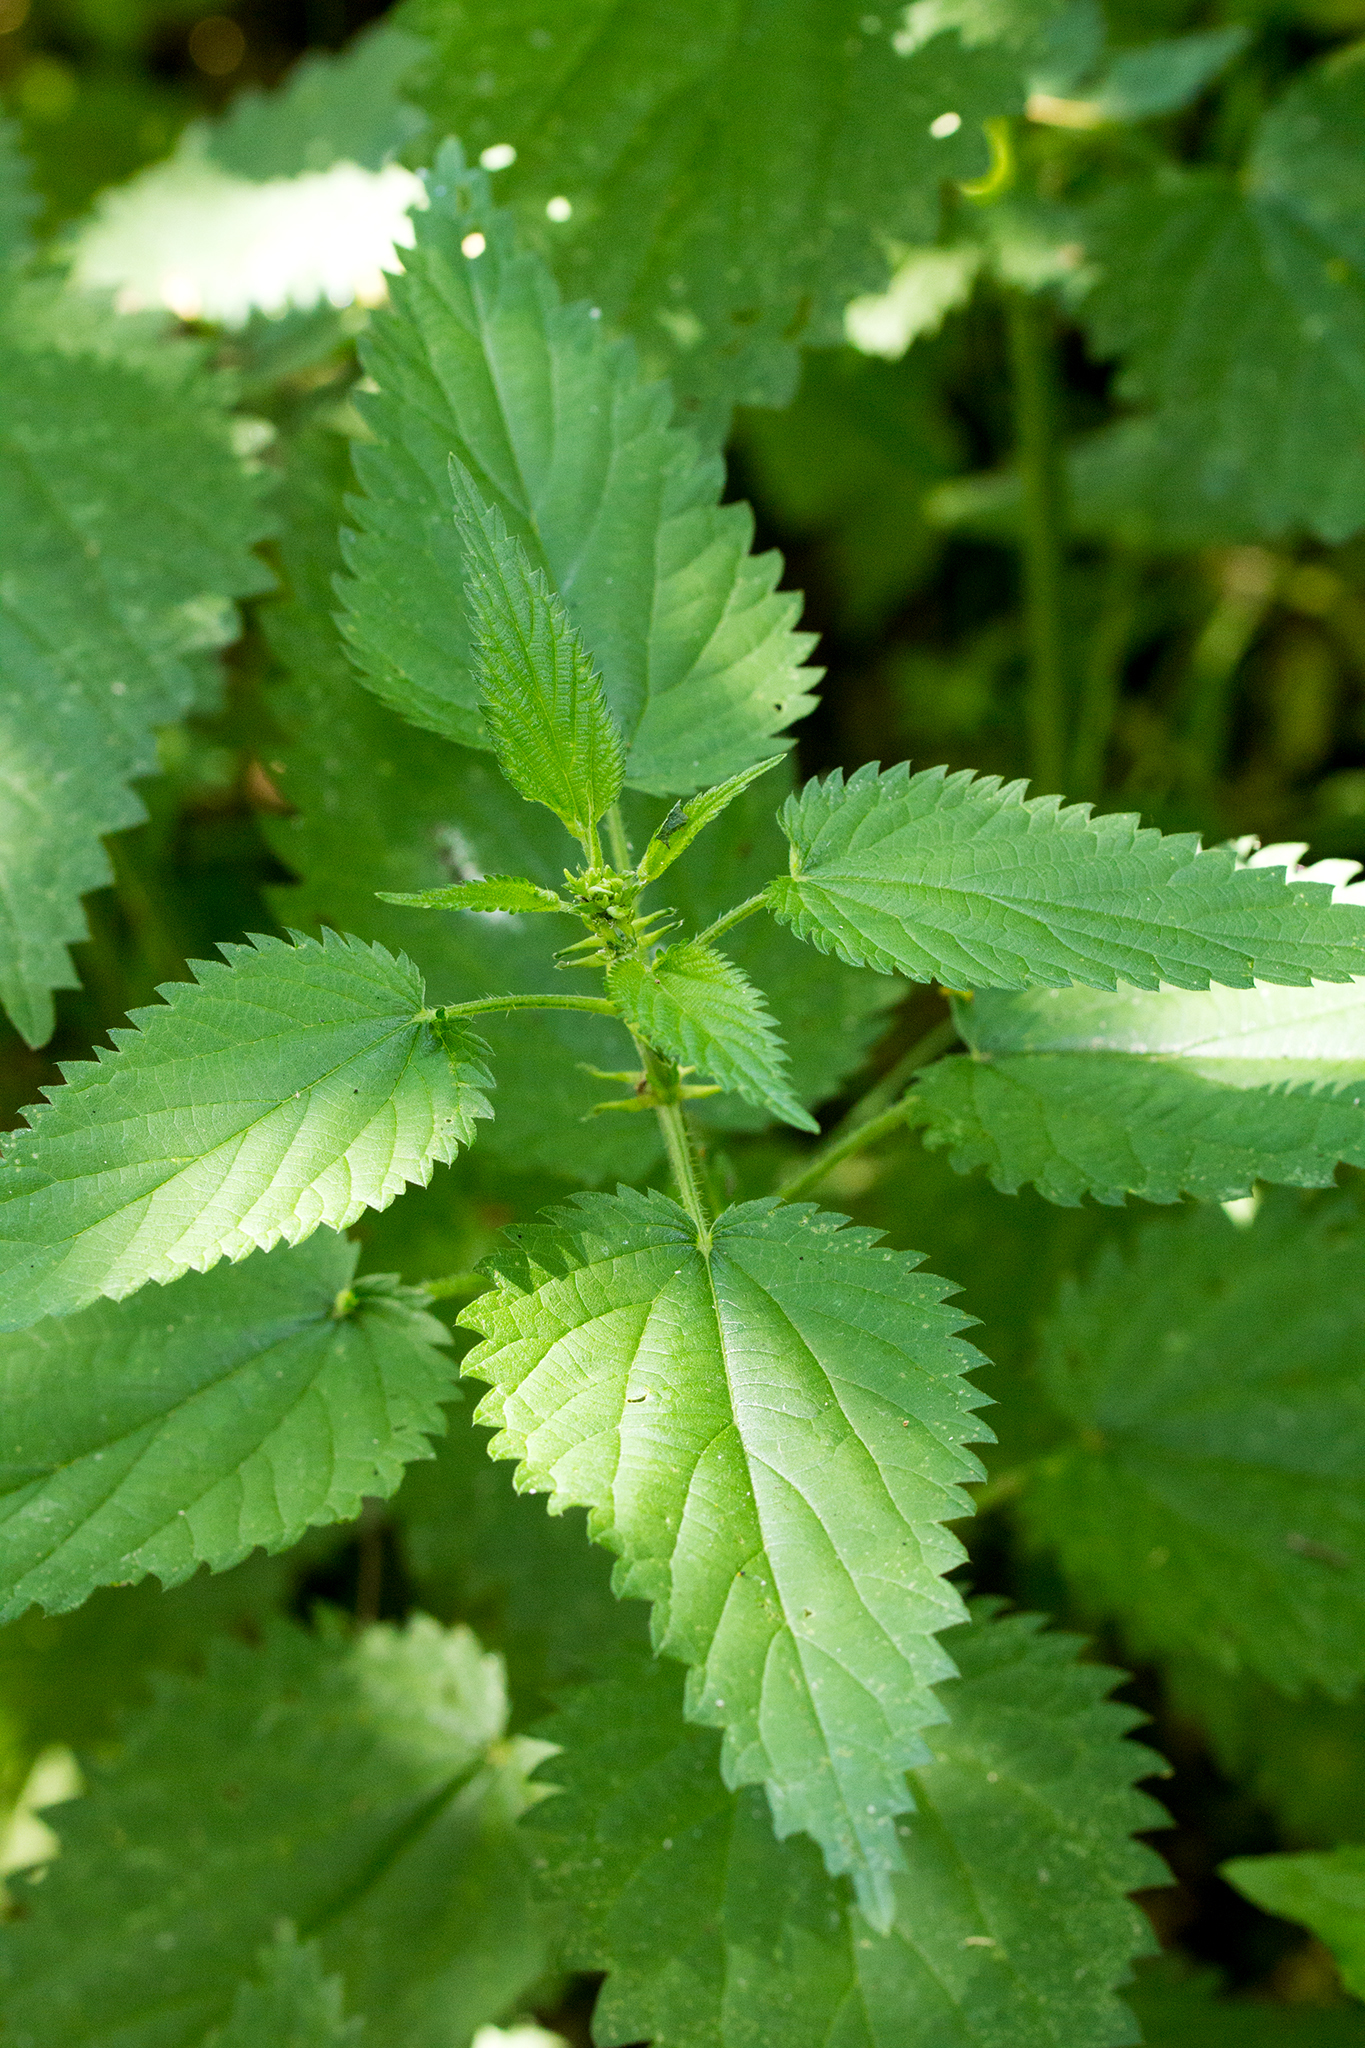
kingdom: Plantae
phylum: Tracheophyta
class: Magnoliopsida
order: Rosales
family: Urticaceae
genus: Urtica
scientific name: Urtica dioica
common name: Common nettle
